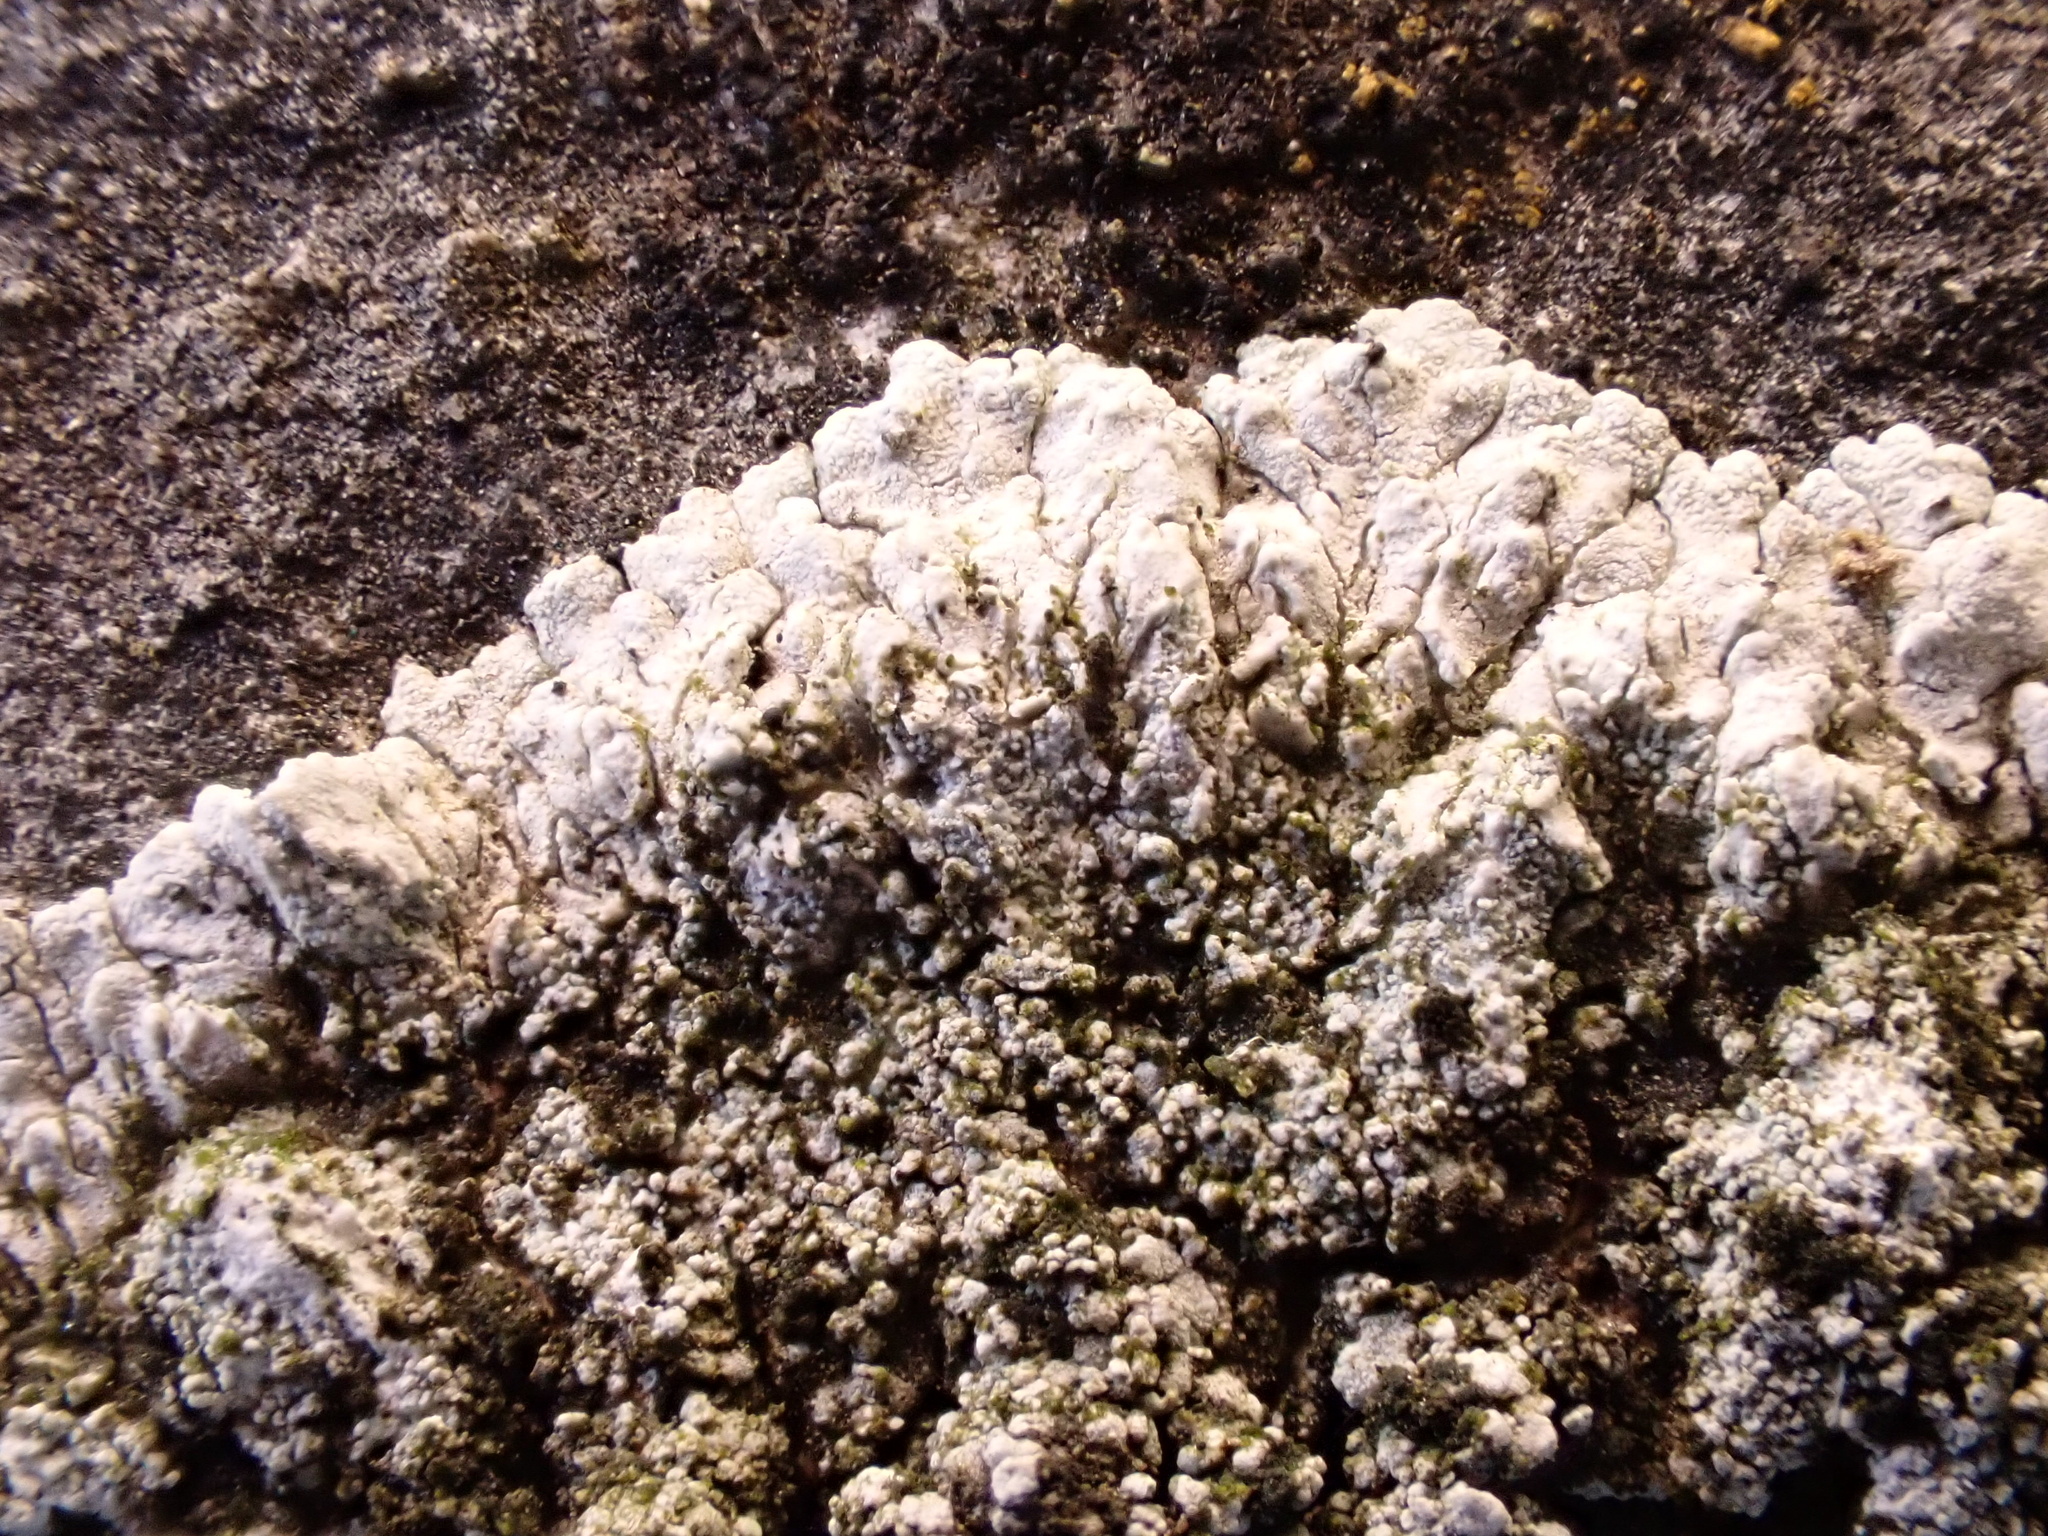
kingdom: Fungi
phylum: Ascomycota
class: Lecanoromycetes
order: Teloschistales
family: Teloschistaceae
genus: Kuettlingeria
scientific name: Kuettlingeria teicholyta
